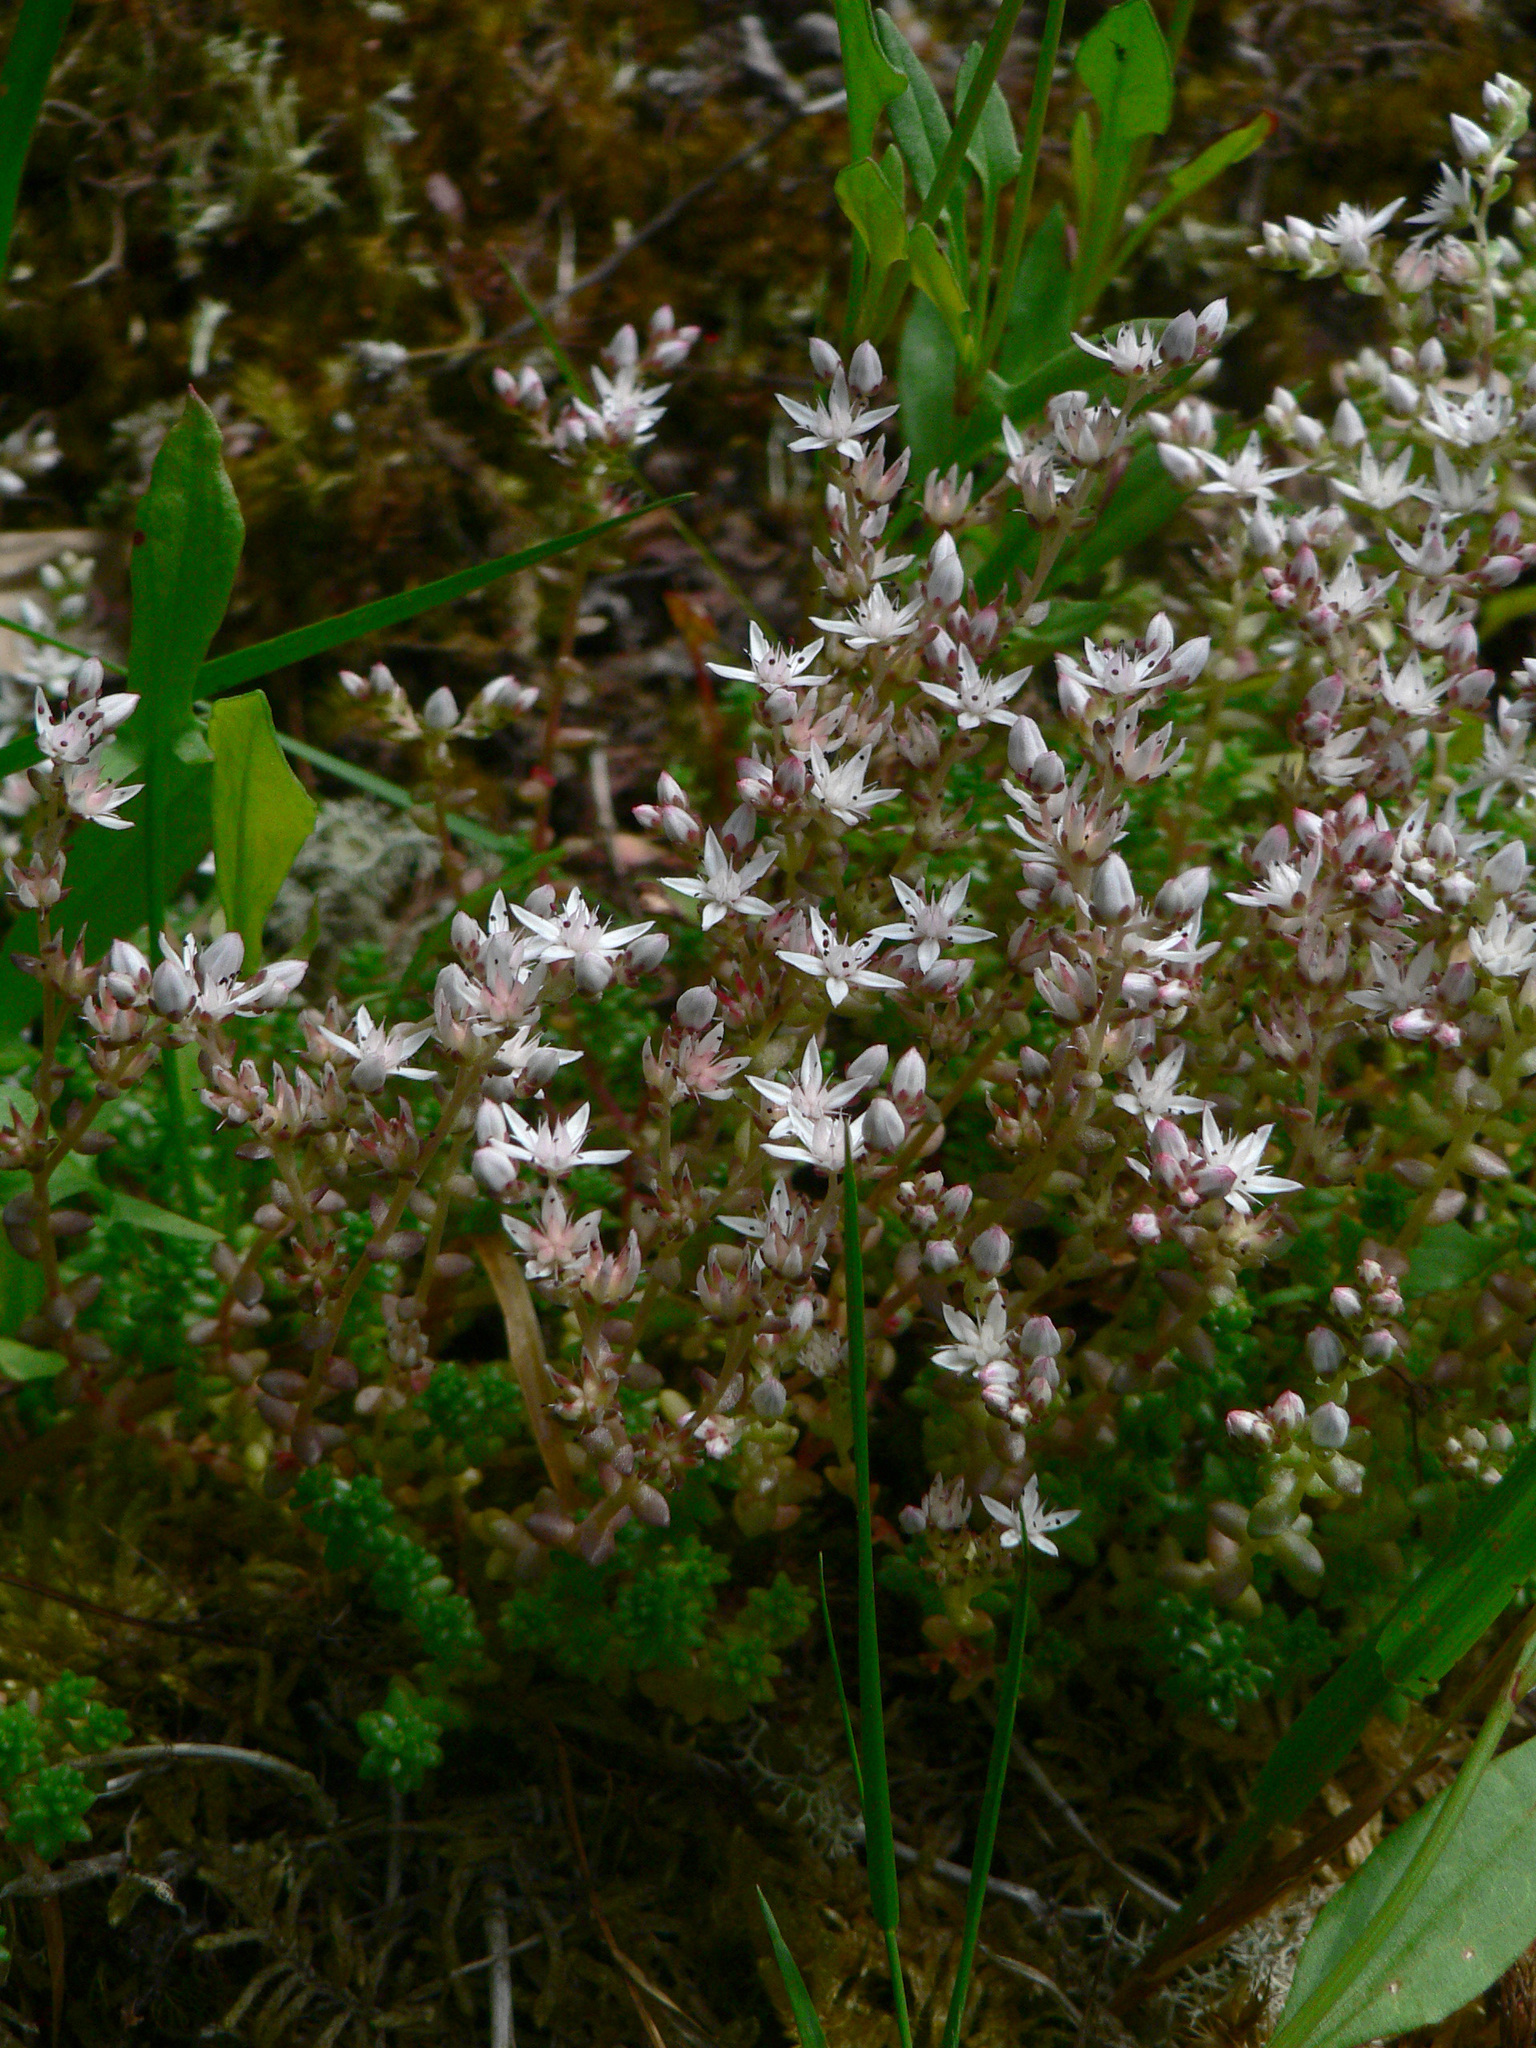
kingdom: Plantae
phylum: Tracheophyta
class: Magnoliopsida
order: Saxifragales
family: Crassulaceae
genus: Sedum
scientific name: Sedum anglicum
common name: English stonecrop
